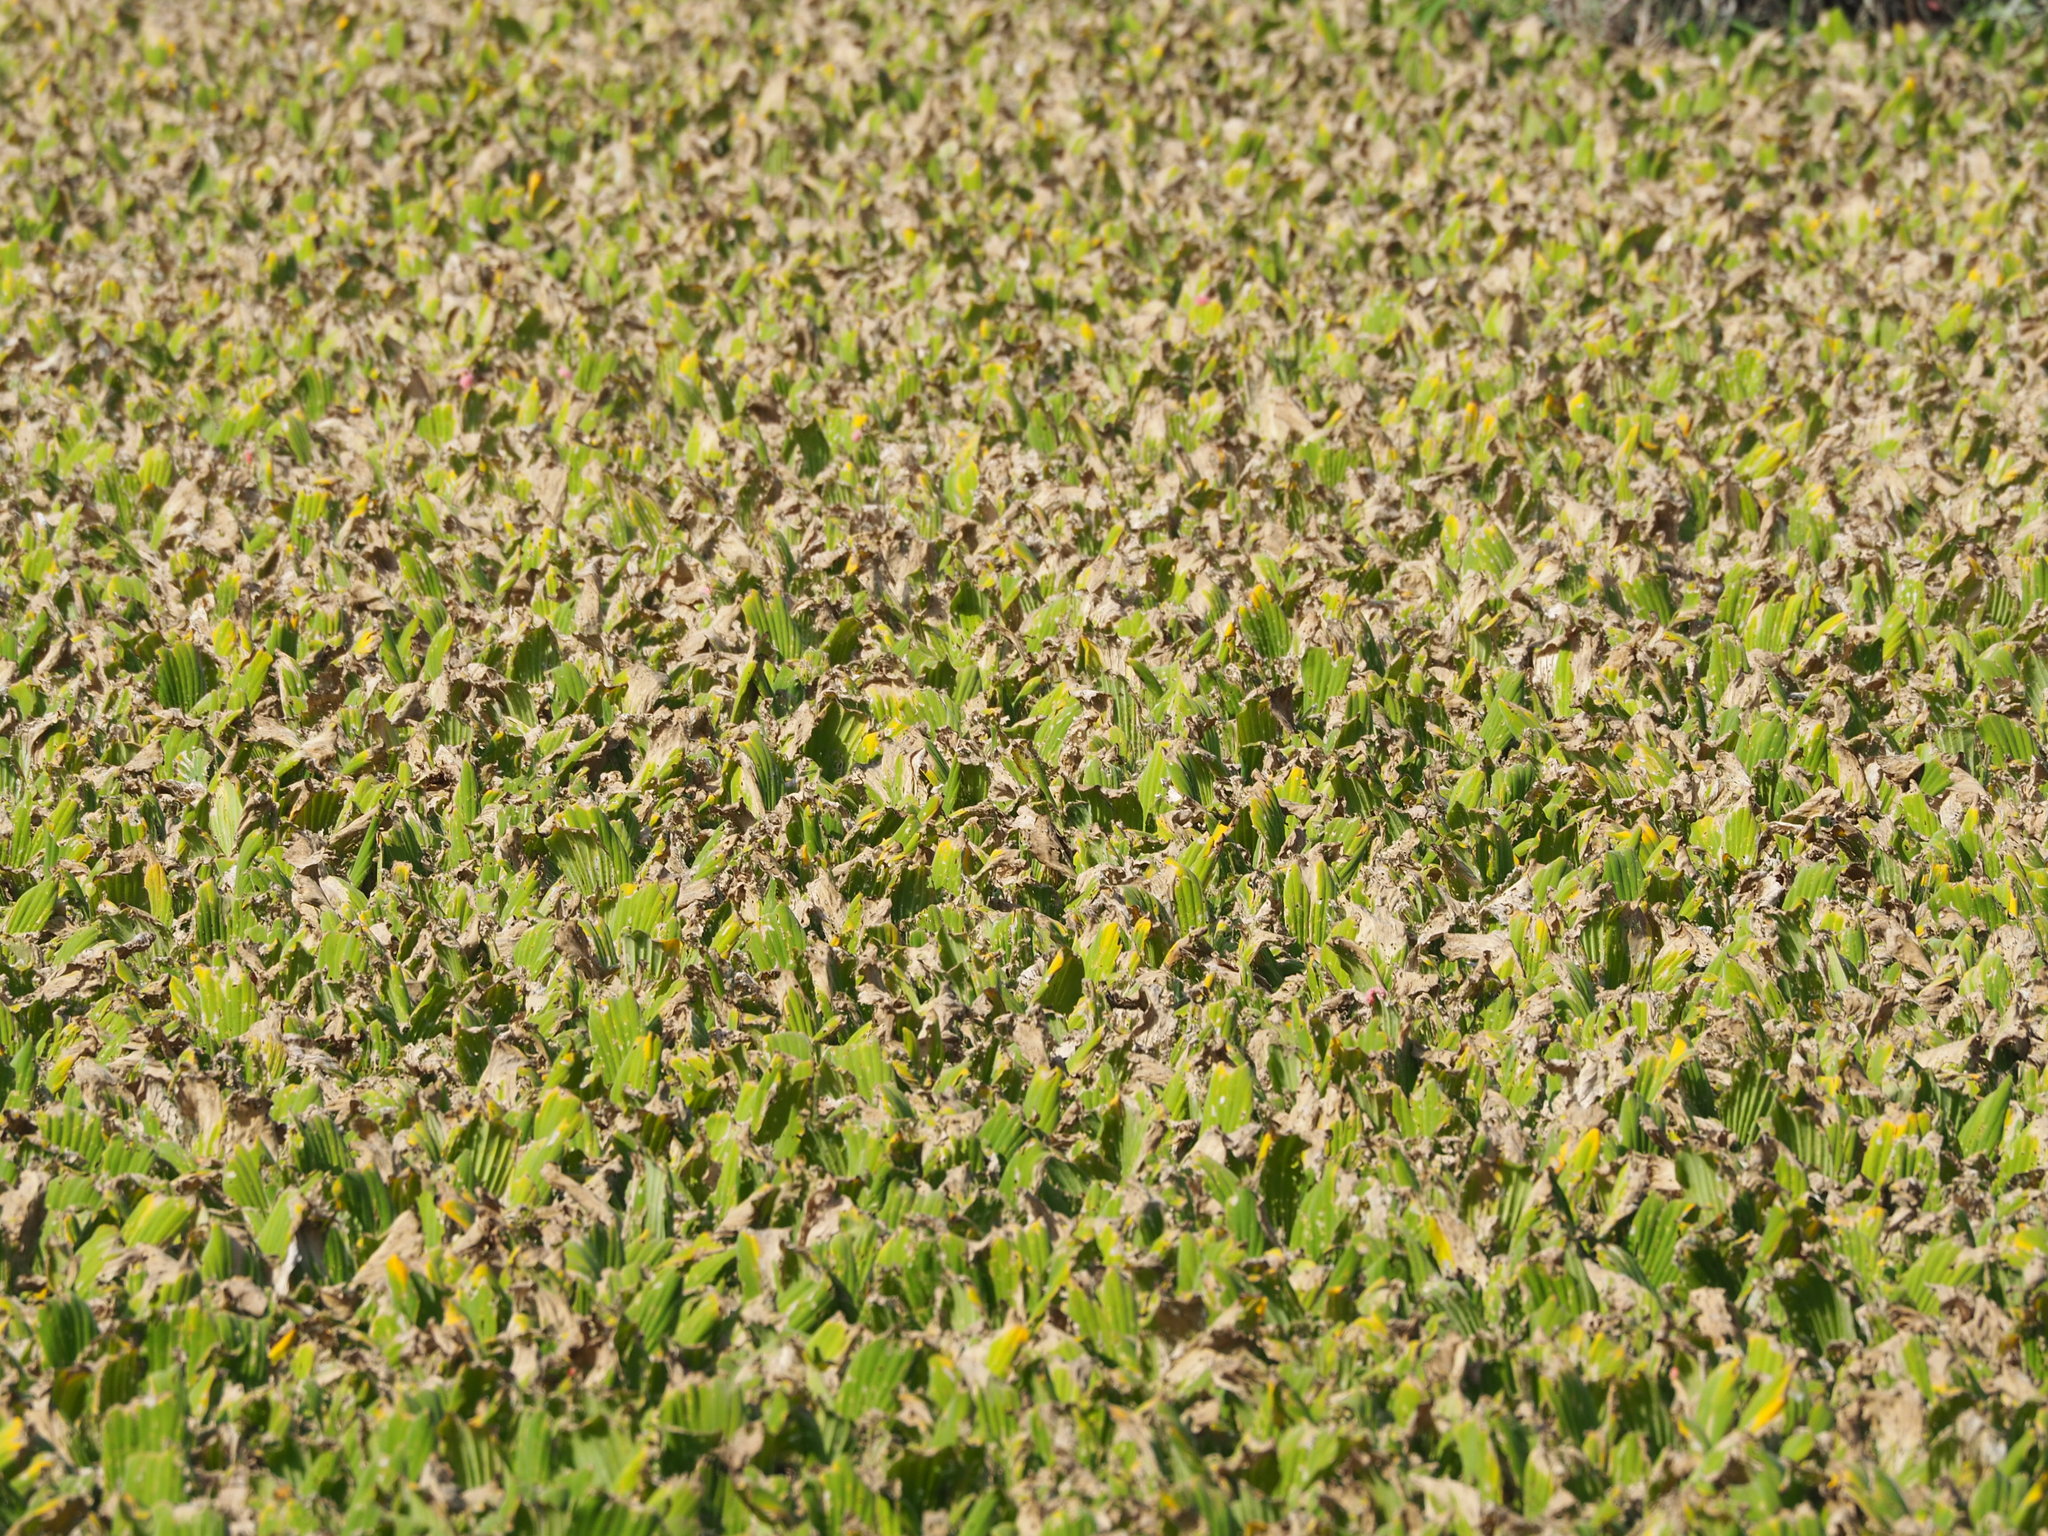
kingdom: Plantae
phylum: Tracheophyta
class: Liliopsida
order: Alismatales
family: Araceae
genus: Pistia
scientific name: Pistia stratiotes
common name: Water lettuce
